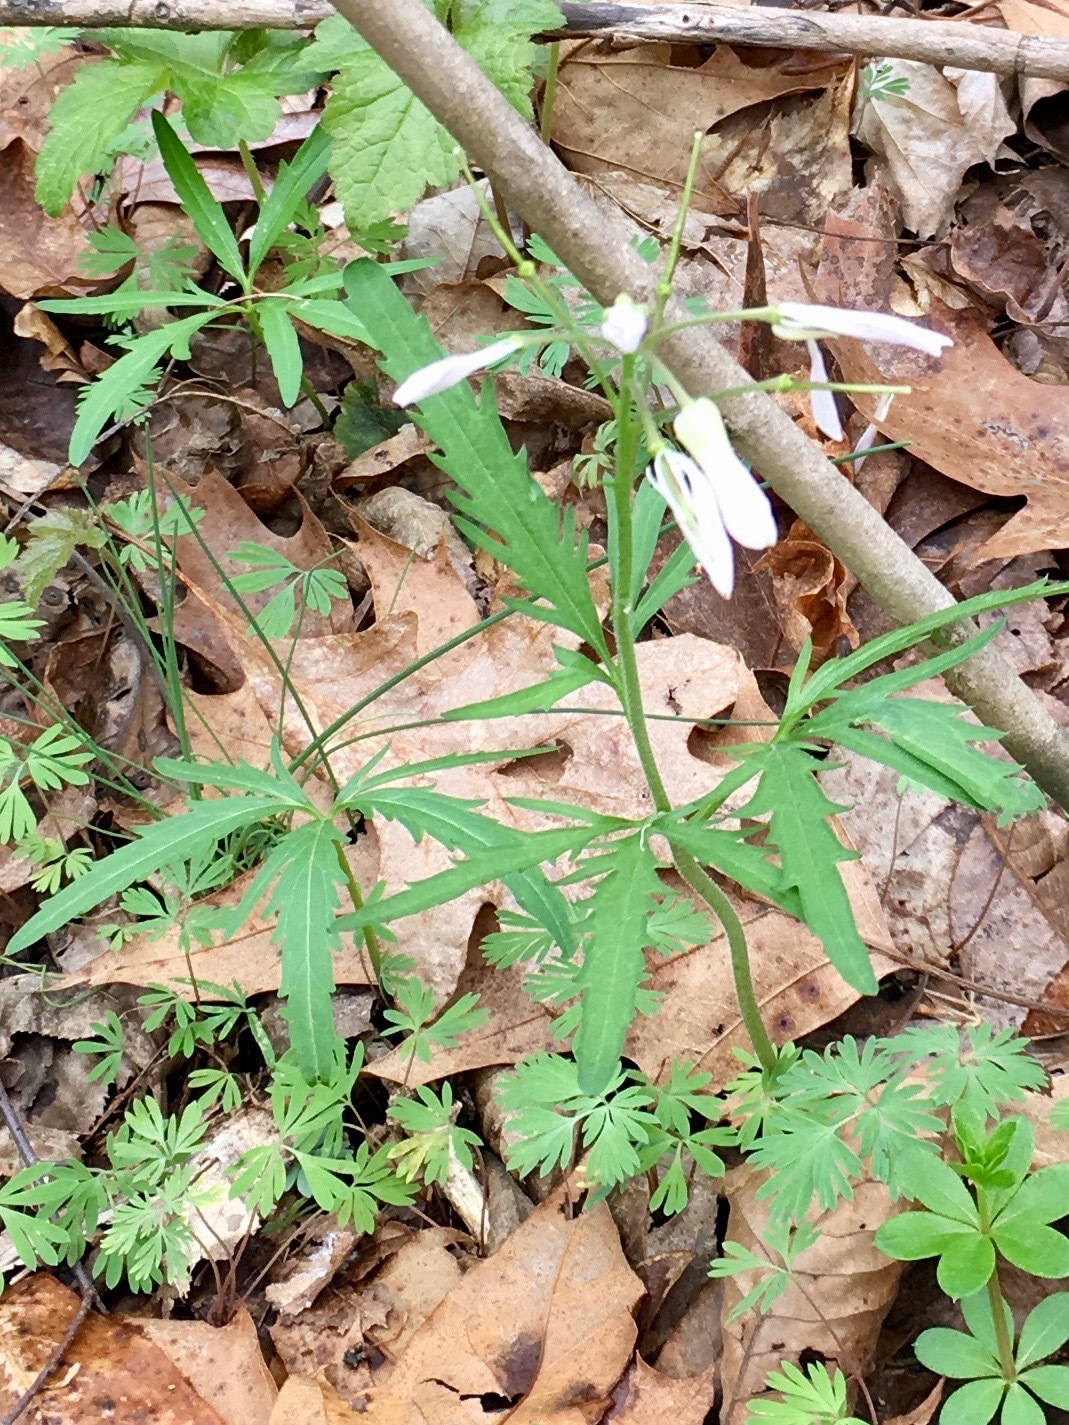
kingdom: Plantae
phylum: Tracheophyta
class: Magnoliopsida
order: Brassicales
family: Brassicaceae
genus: Cardamine
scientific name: Cardamine concatenata
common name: Cut-leaf toothcup
